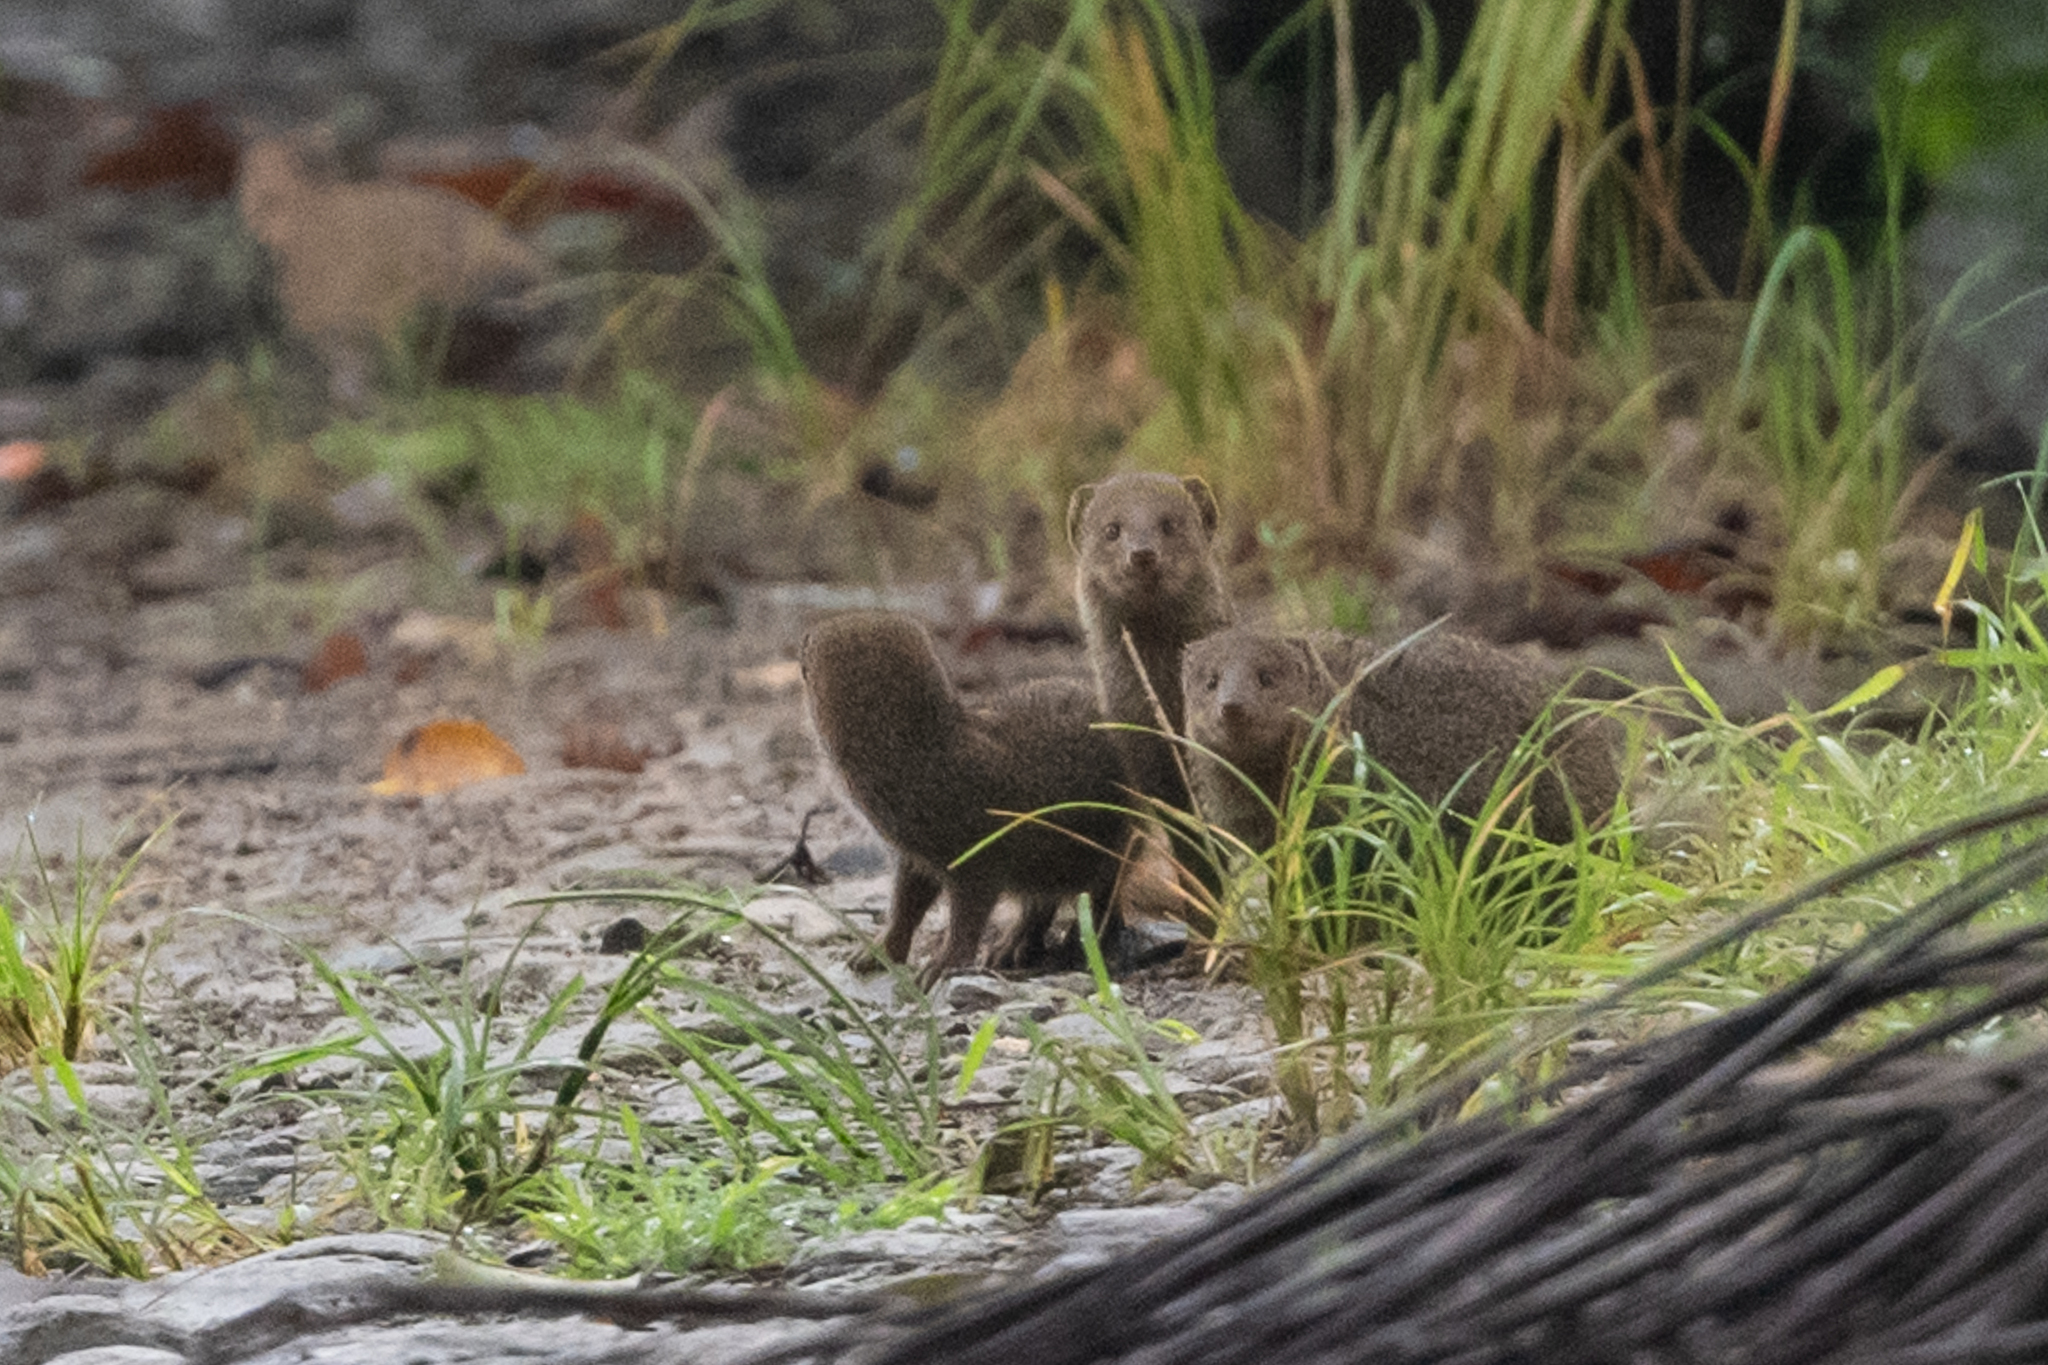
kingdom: Animalia
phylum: Chordata
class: Mammalia
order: Carnivora
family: Herpestidae
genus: Herpestes
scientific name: Herpestes javanicus
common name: Small asian mongoose
